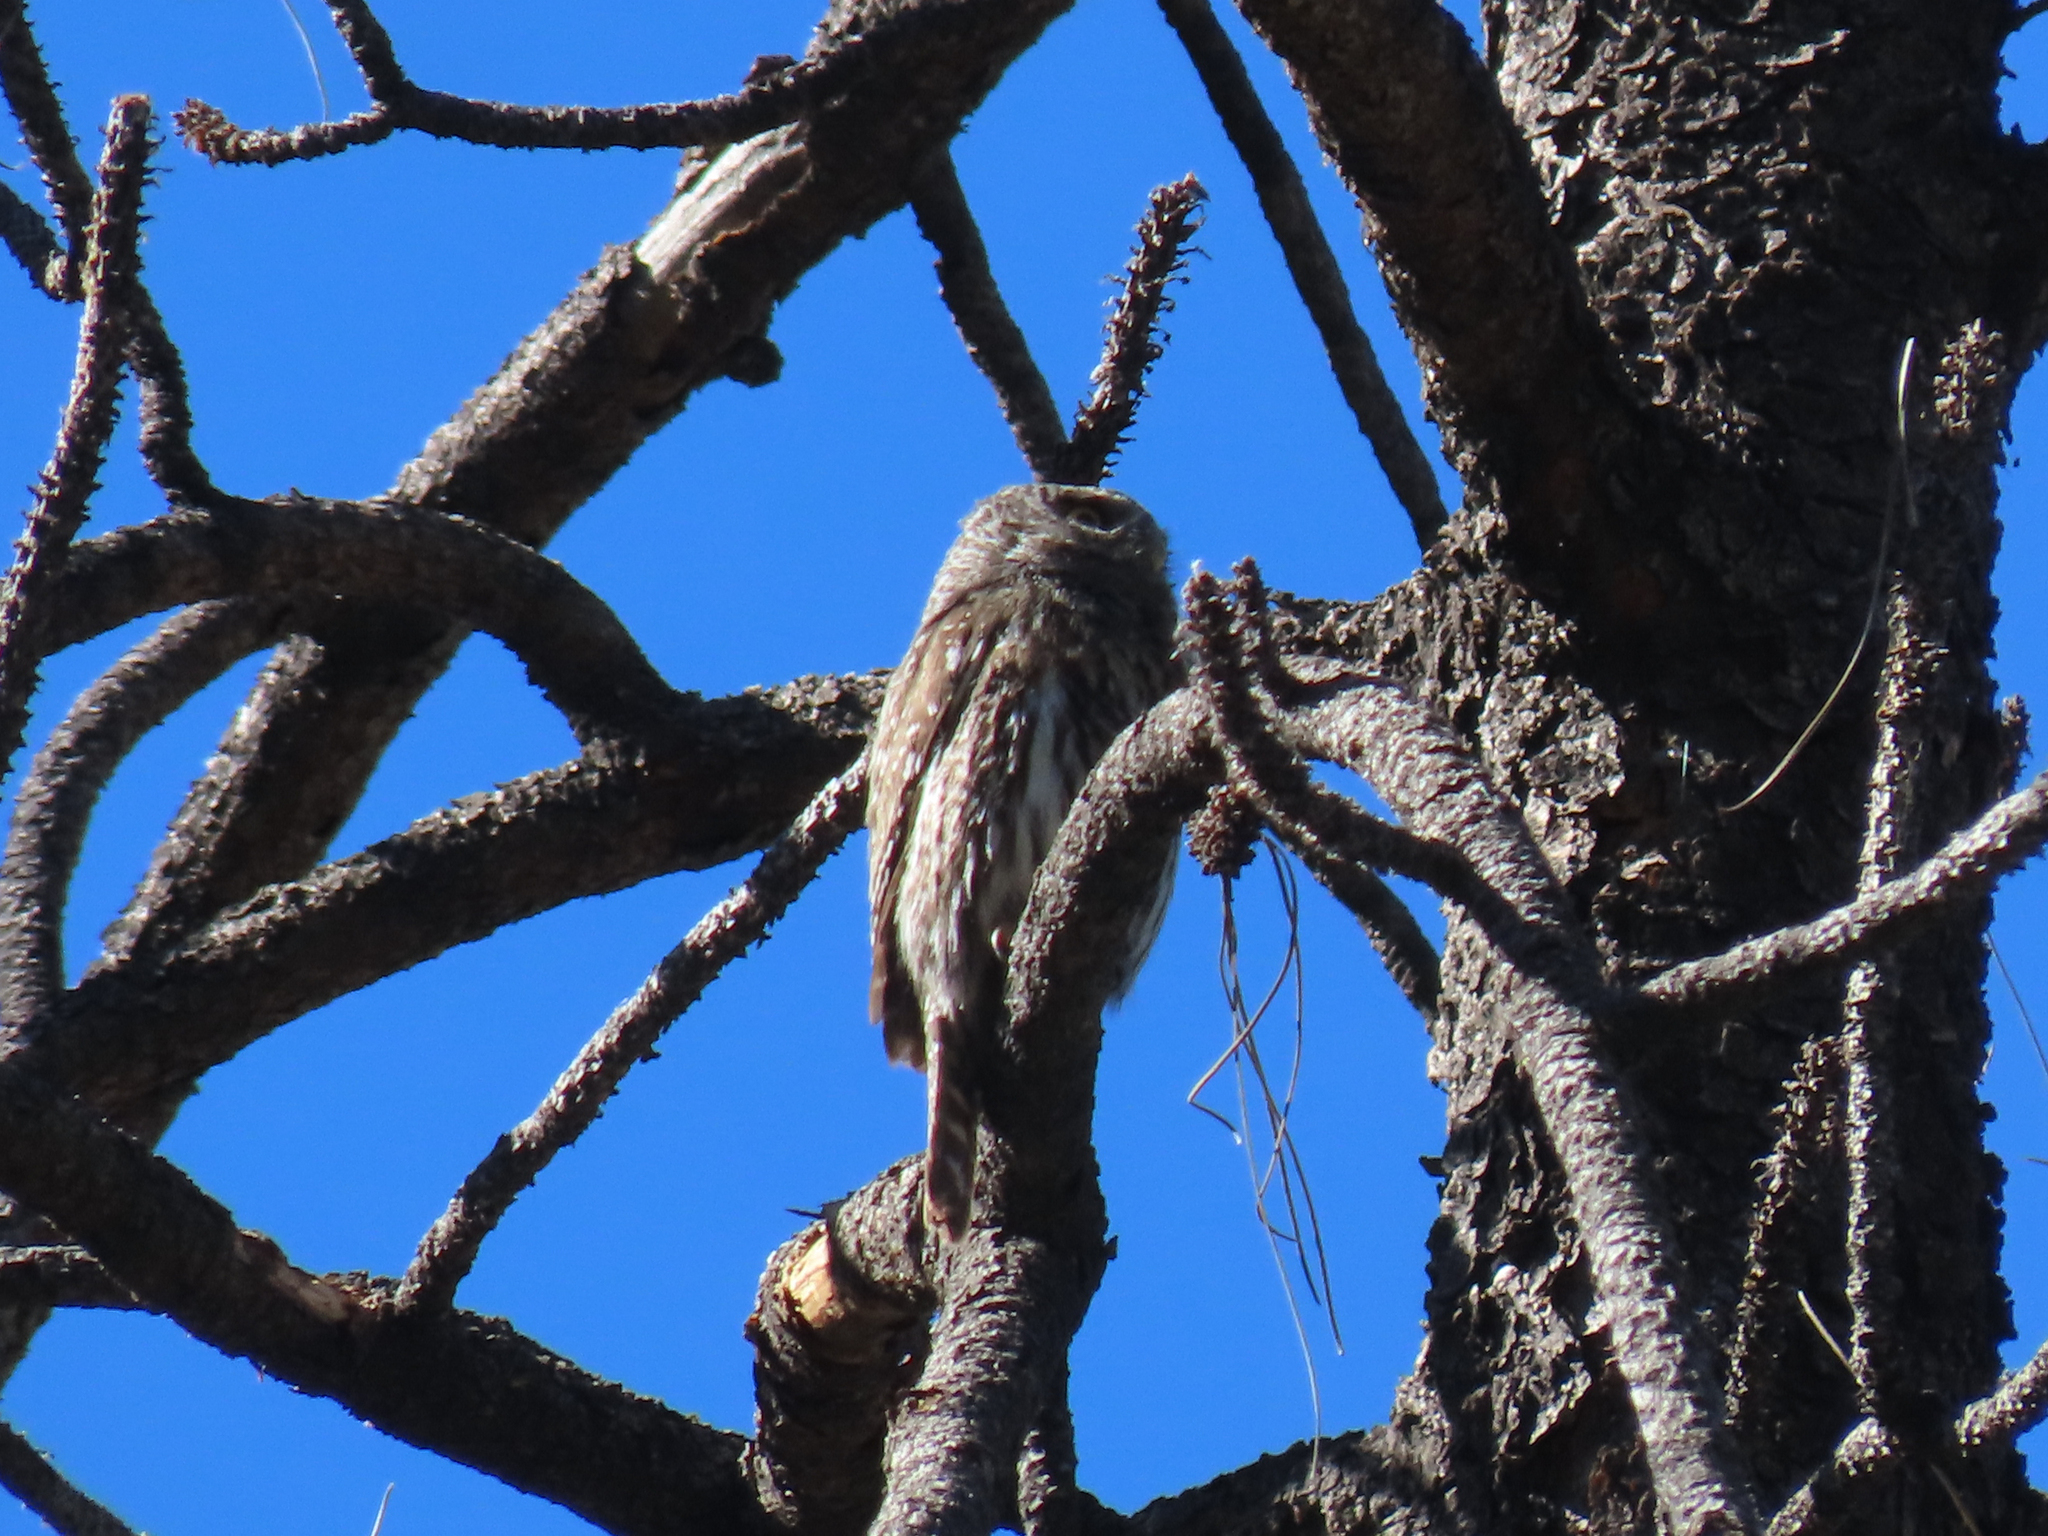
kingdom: Animalia
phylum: Chordata
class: Aves
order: Strigiformes
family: Strigidae
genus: Glaucidium
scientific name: Glaucidium gnoma
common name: Northern pygmy-owl
